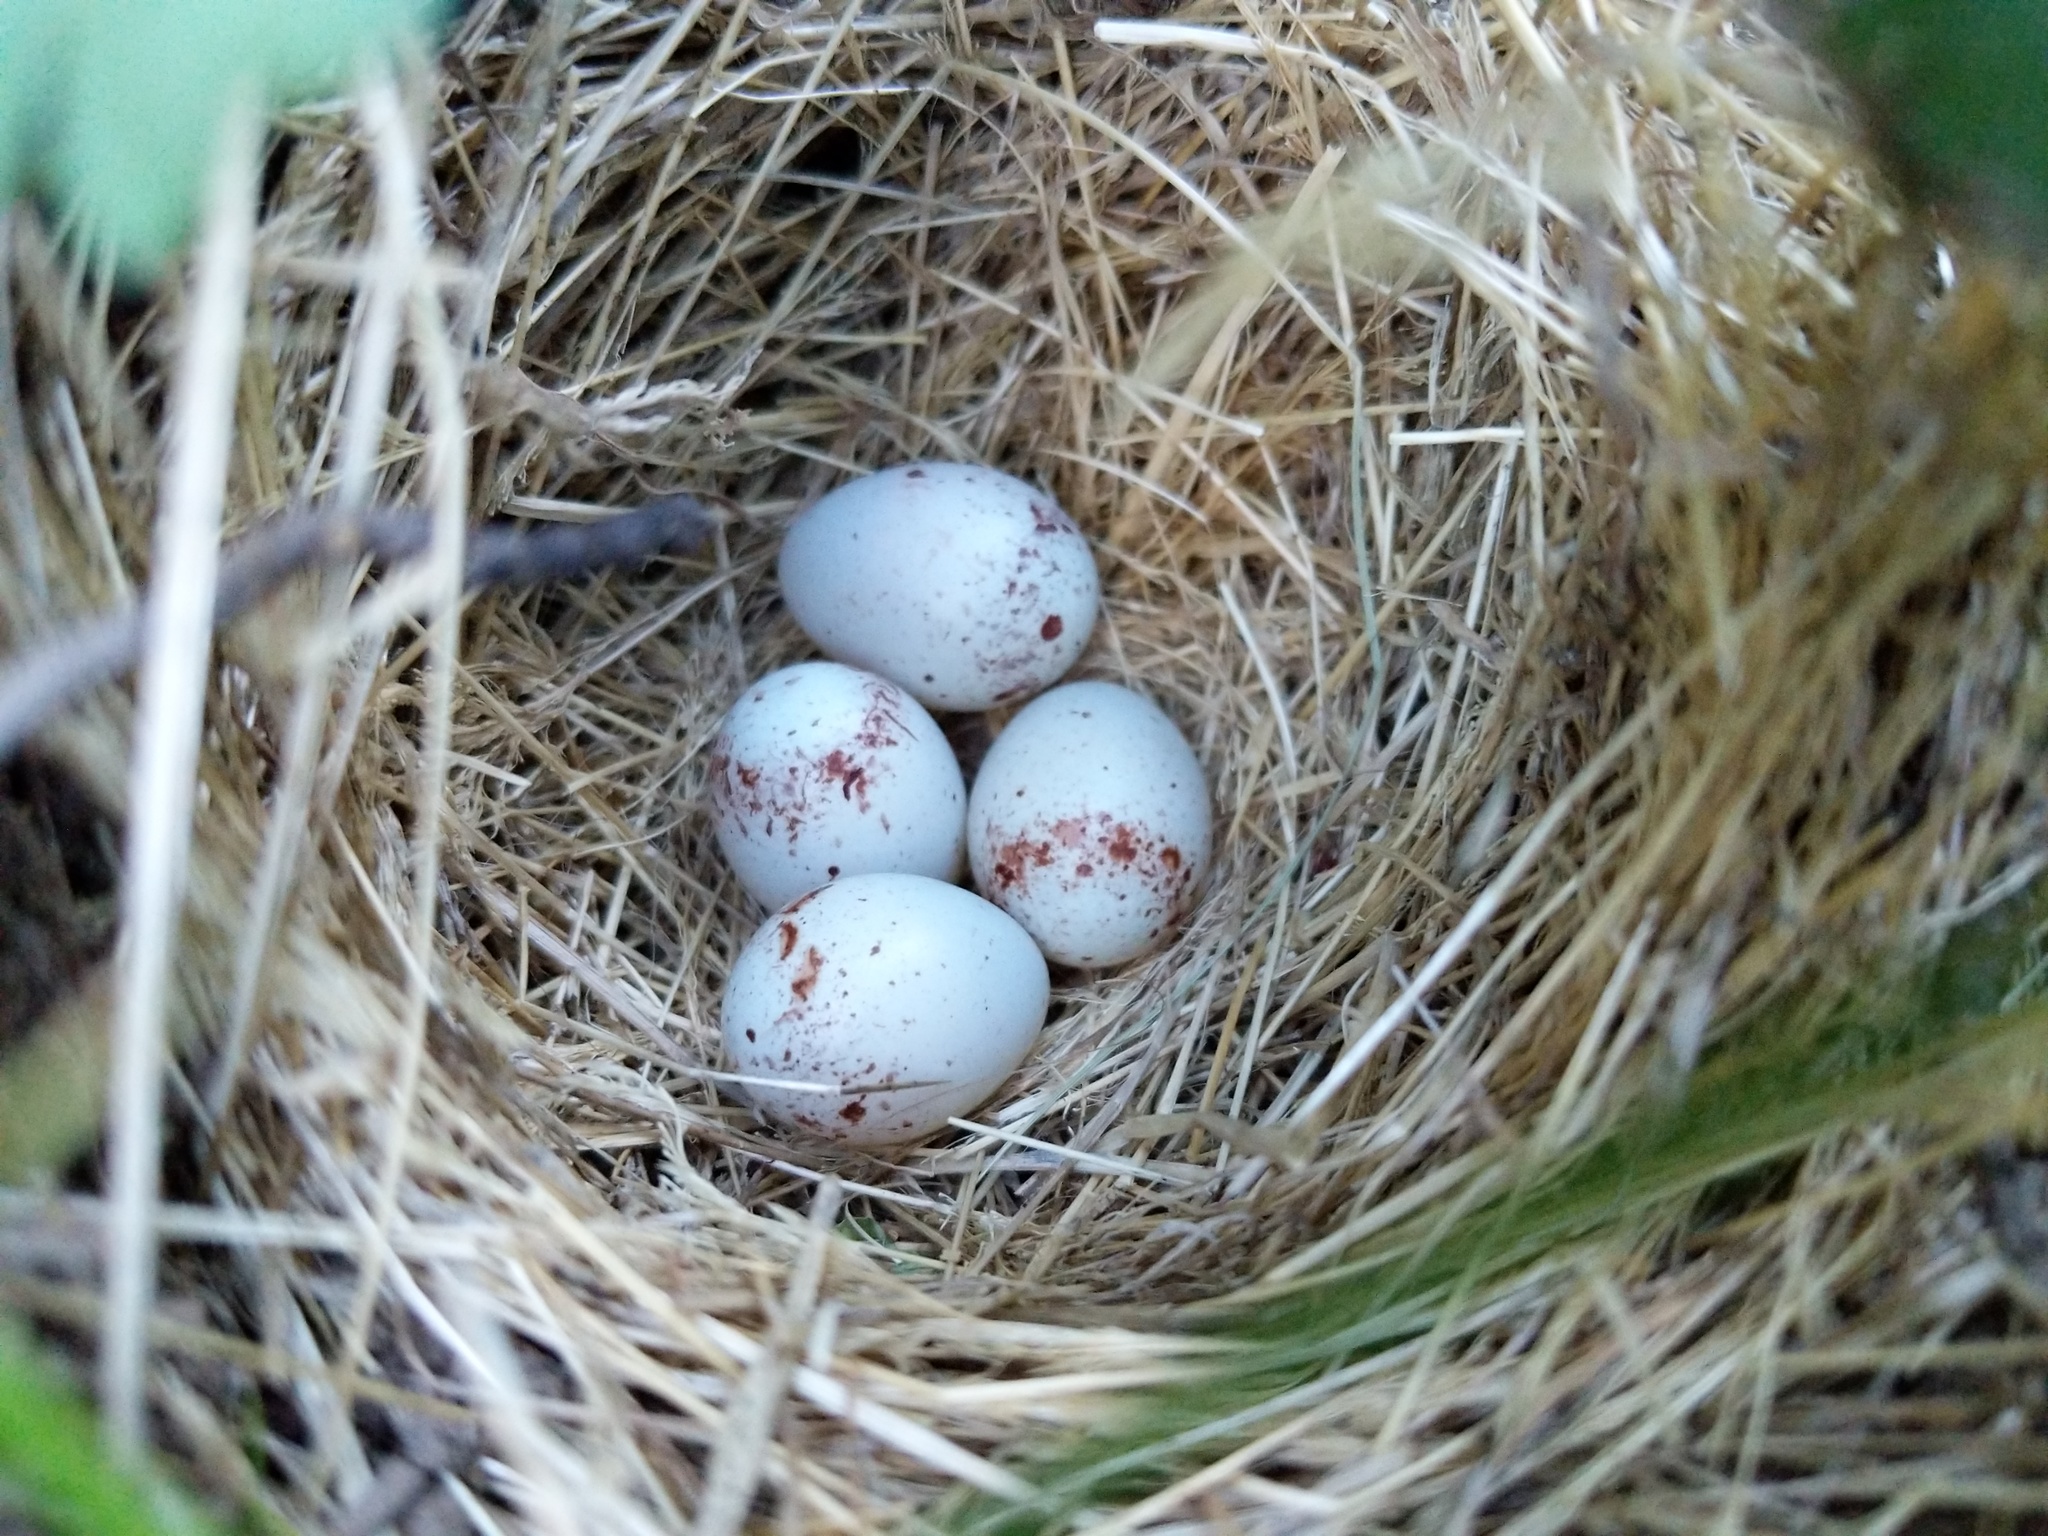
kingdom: Animalia
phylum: Chordata
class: Aves
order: Passeriformes
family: Passerellidae
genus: Junco
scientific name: Junco hyemalis
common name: Dark-eyed junco
